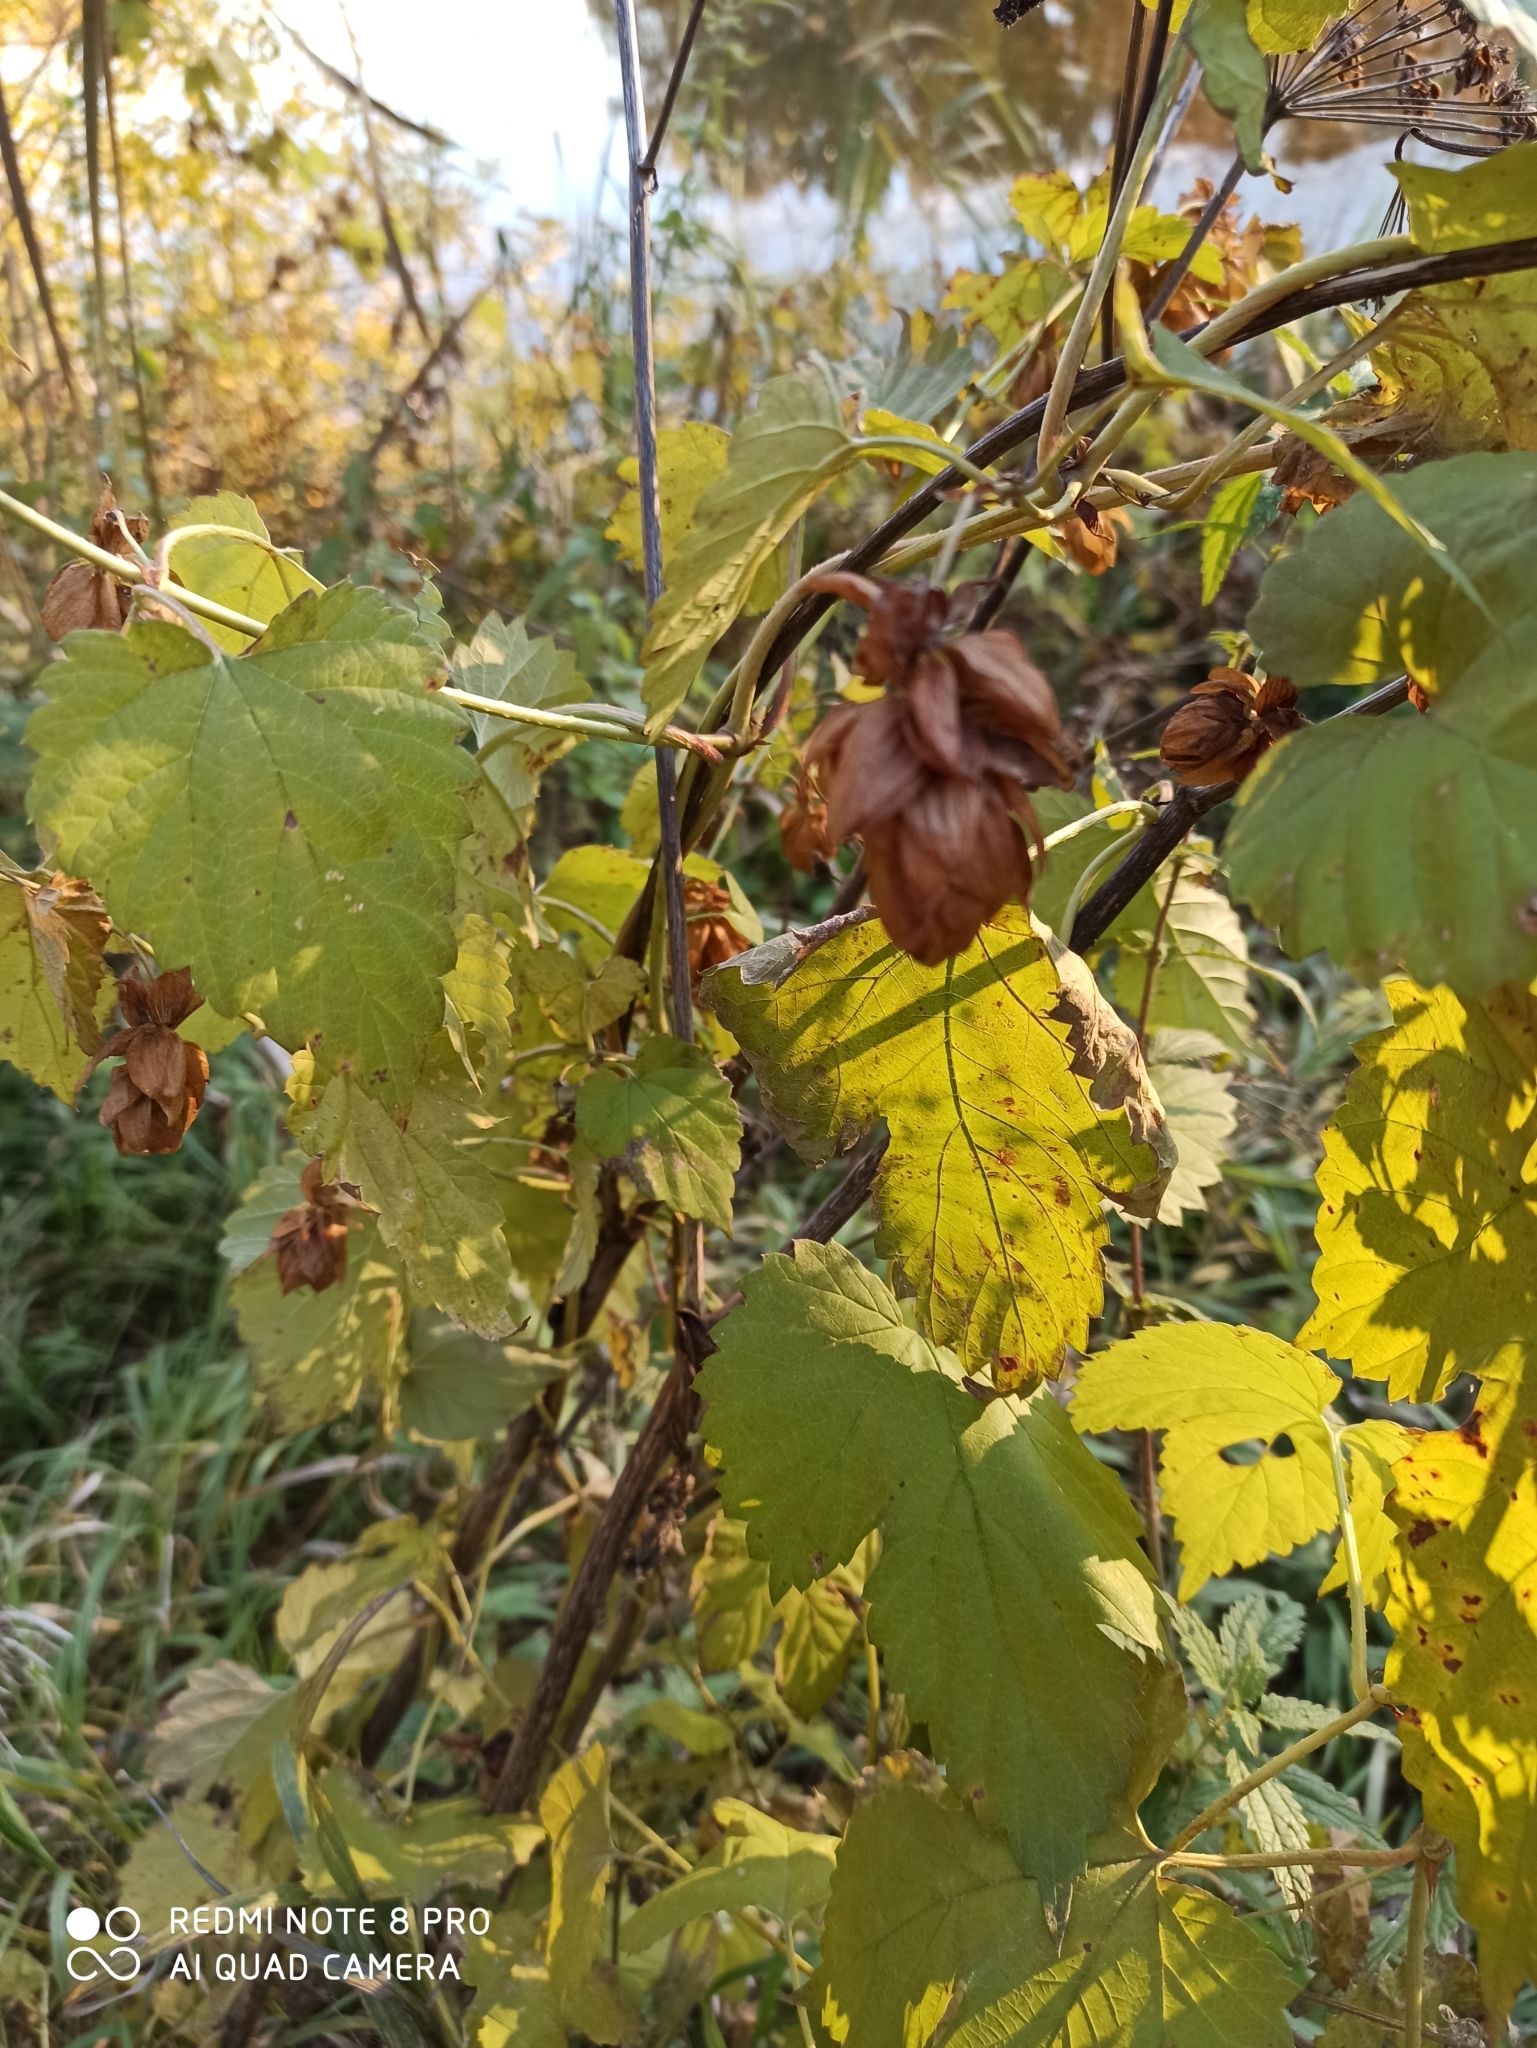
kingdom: Plantae
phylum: Tracheophyta
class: Magnoliopsida
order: Rosales
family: Cannabaceae
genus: Humulus
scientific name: Humulus lupulus
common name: Hop
